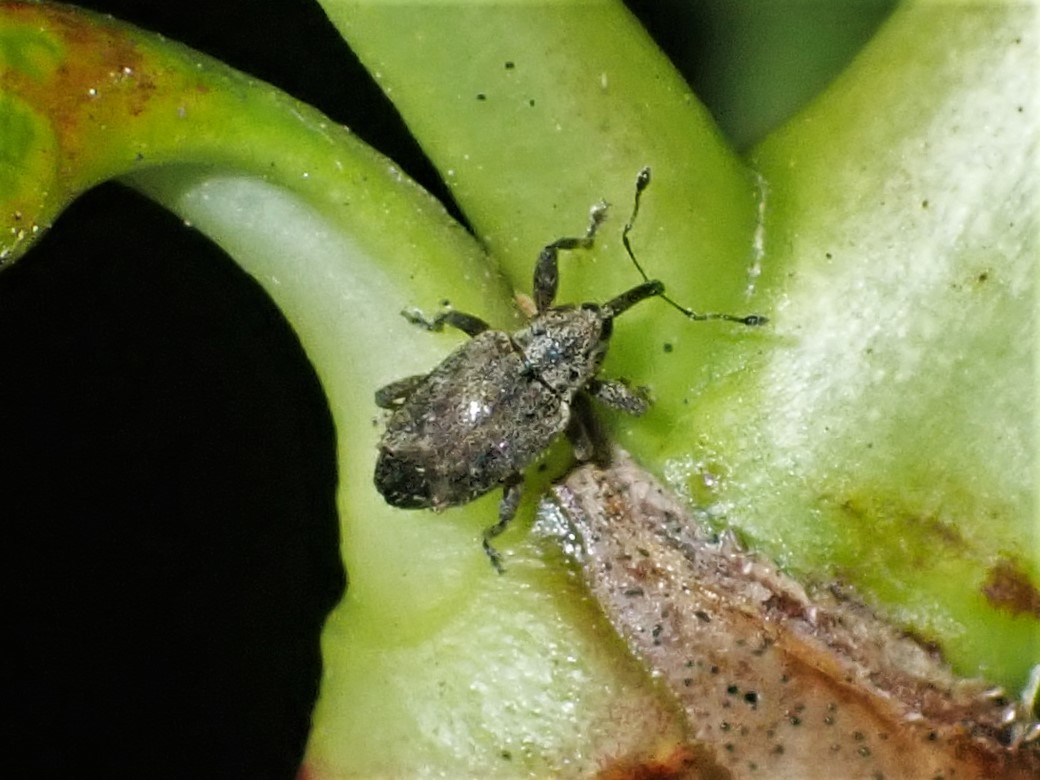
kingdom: Animalia
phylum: Arthropoda
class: Insecta
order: Coleoptera
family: Curculionidae
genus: Praolepra
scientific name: Praolepra squamosa
